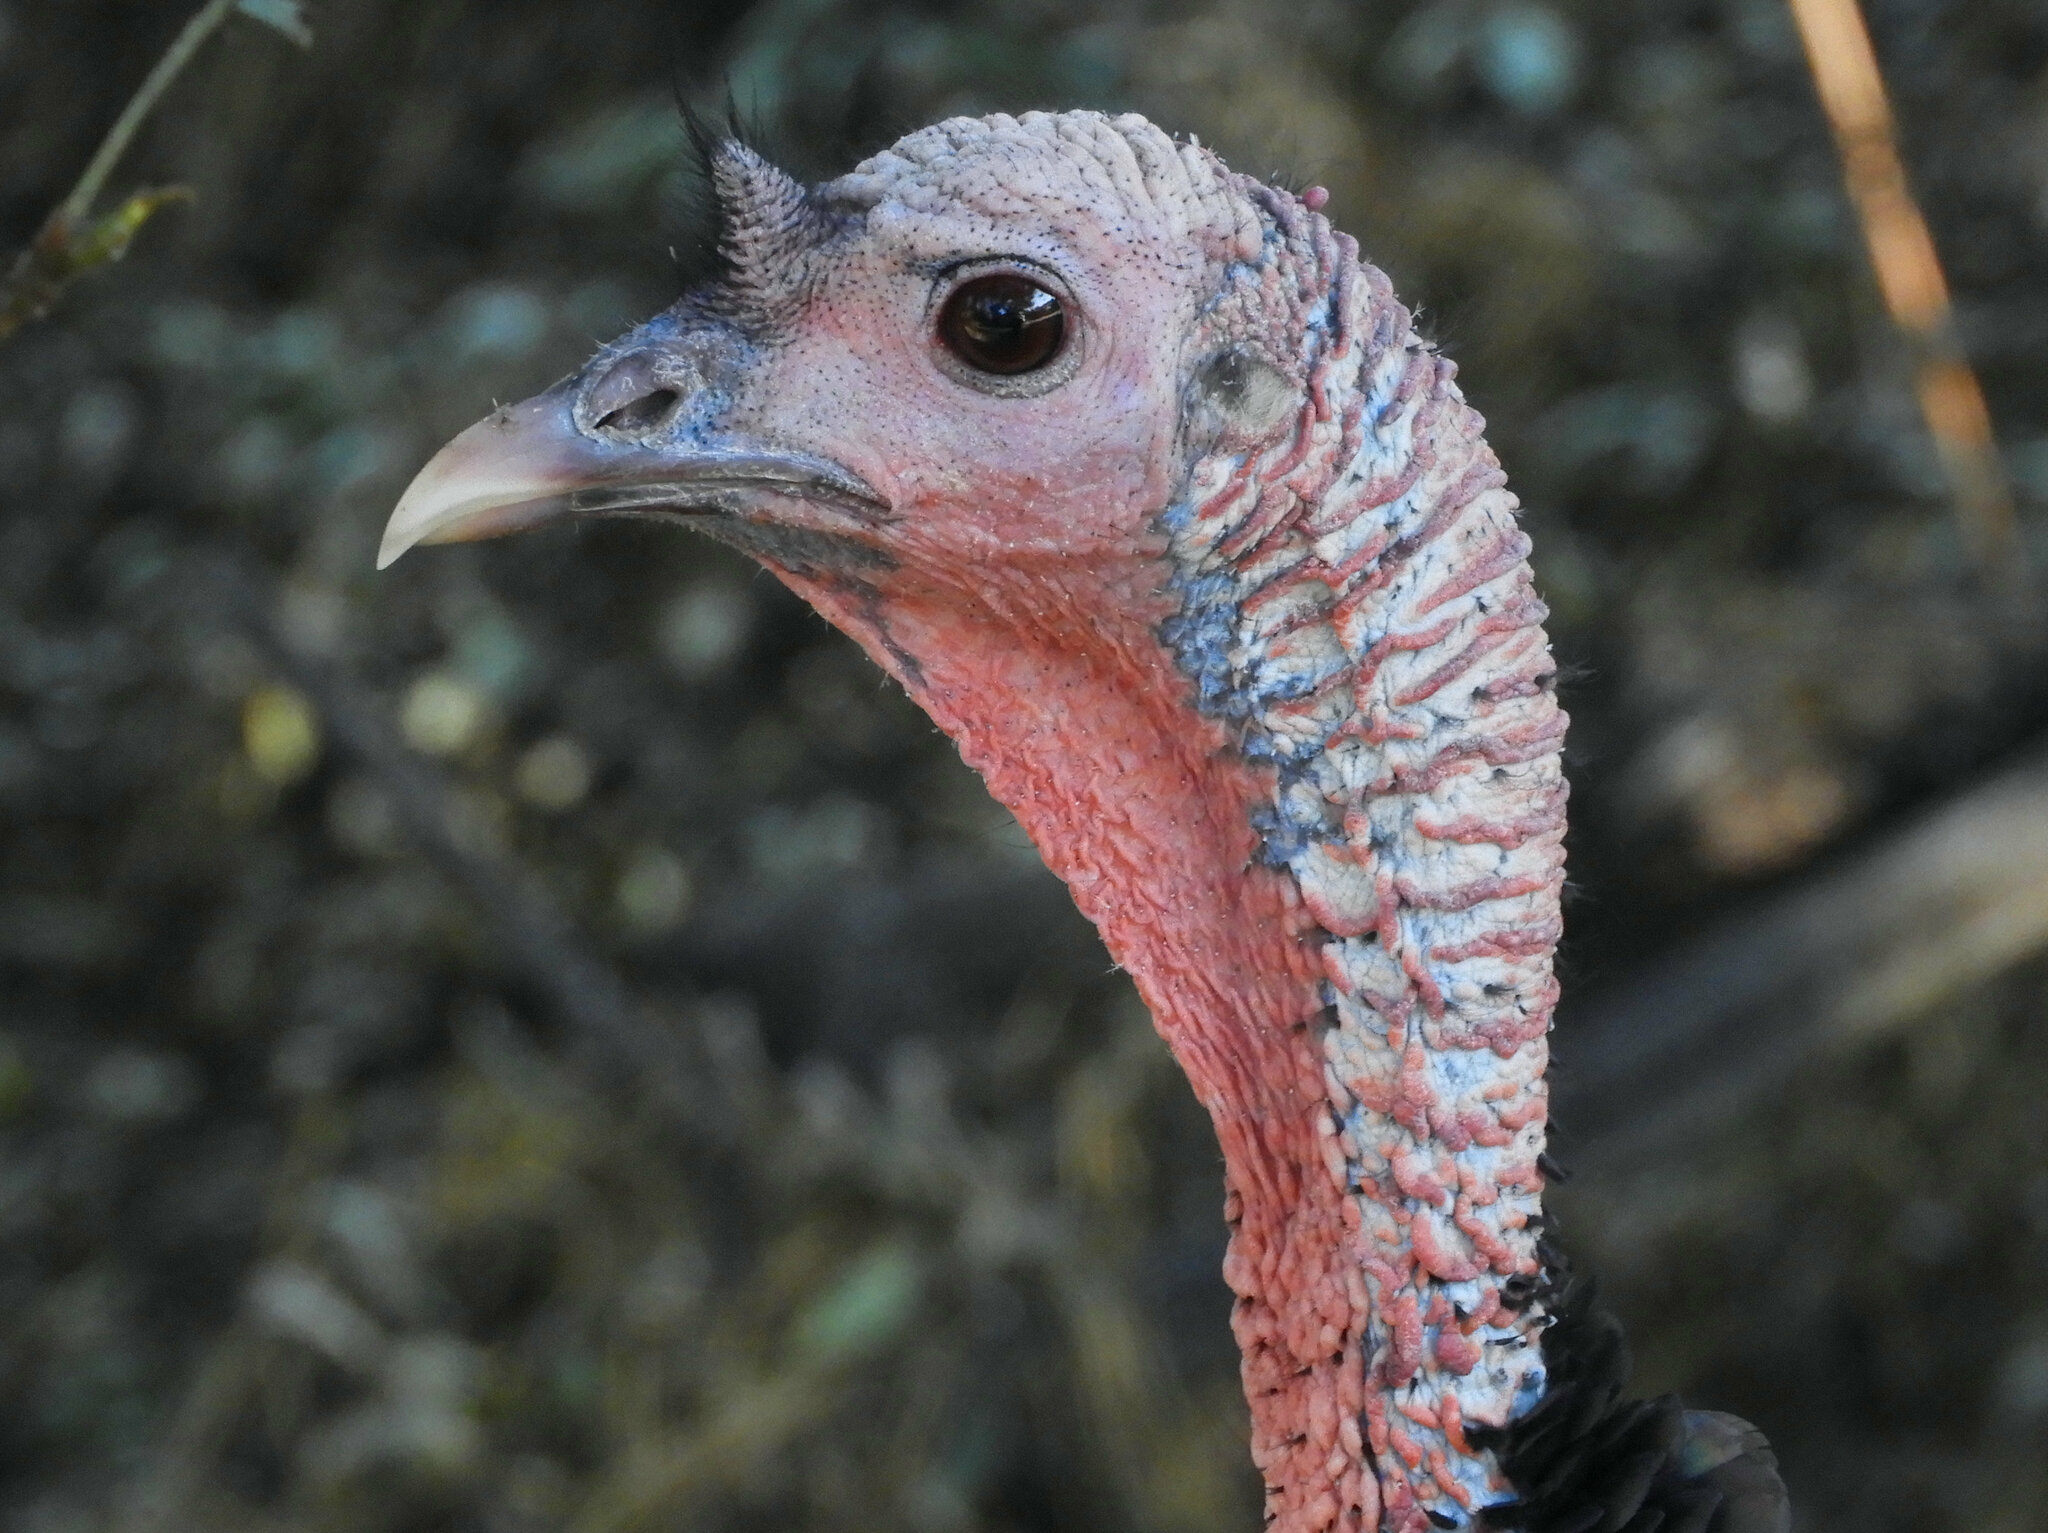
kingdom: Animalia
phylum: Chordata
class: Aves
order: Galliformes
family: Phasianidae
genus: Meleagris
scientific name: Meleagris gallopavo
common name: Wild turkey
